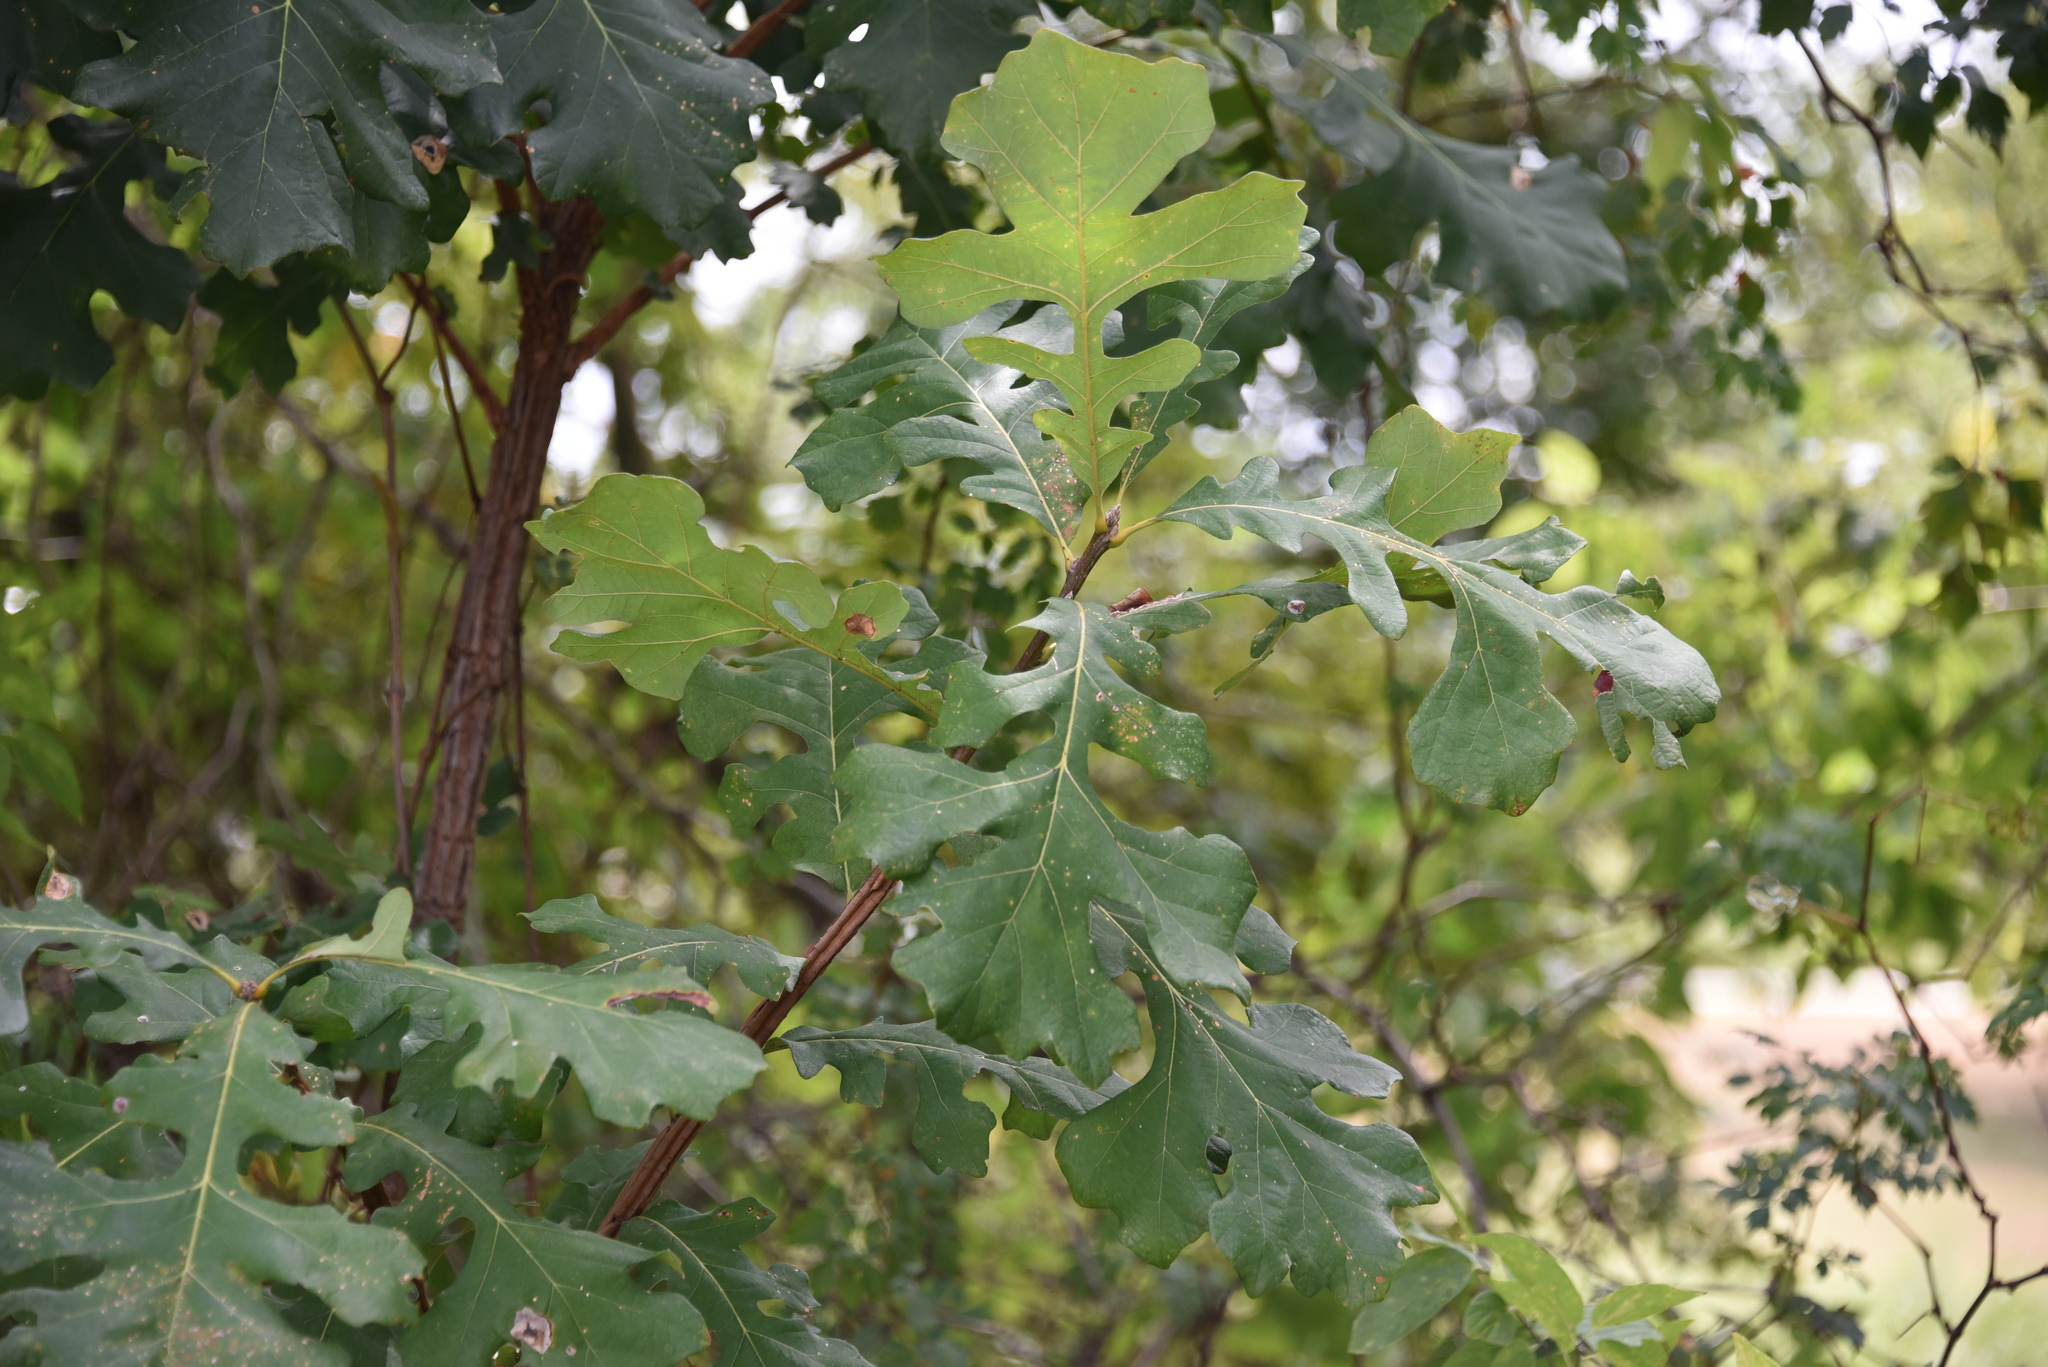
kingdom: Plantae
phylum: Tracheophyta
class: Magnoliopsida
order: Fagales
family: Fagaceae
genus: Quercus
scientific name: Quercus macrocarpa
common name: Bur oak
